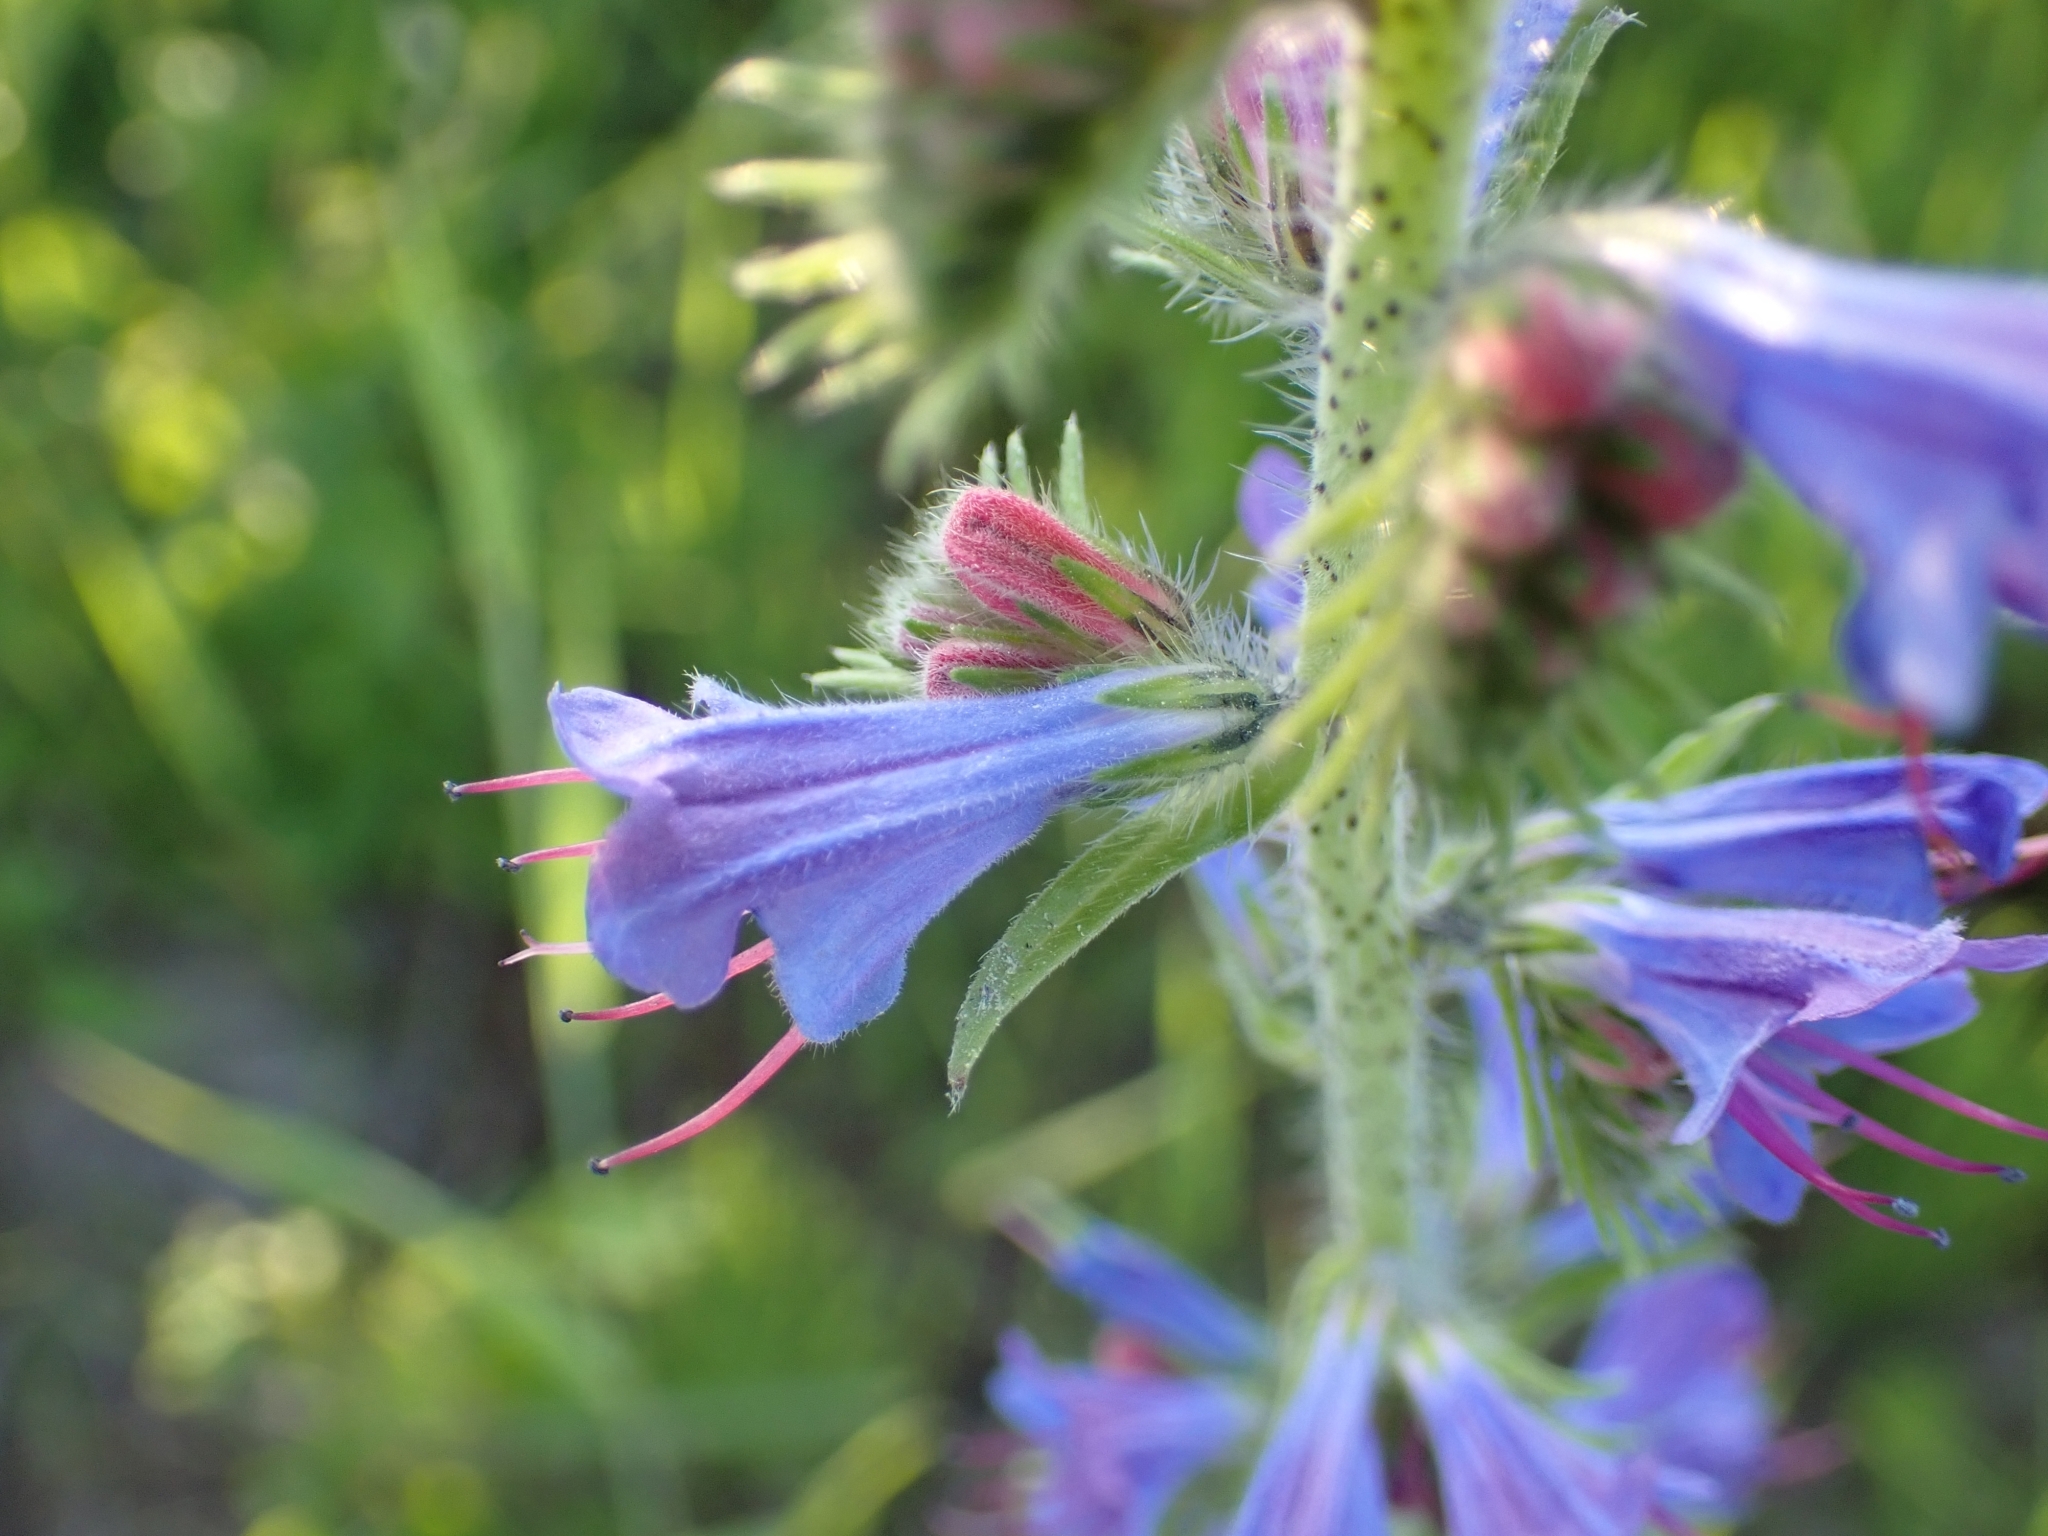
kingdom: Plantae
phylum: Tracheophyta
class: Magnoliopsida
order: Boraginales
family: Boraginaceae
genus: Echium
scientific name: Echium vulgare
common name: Common viper's bugloss
